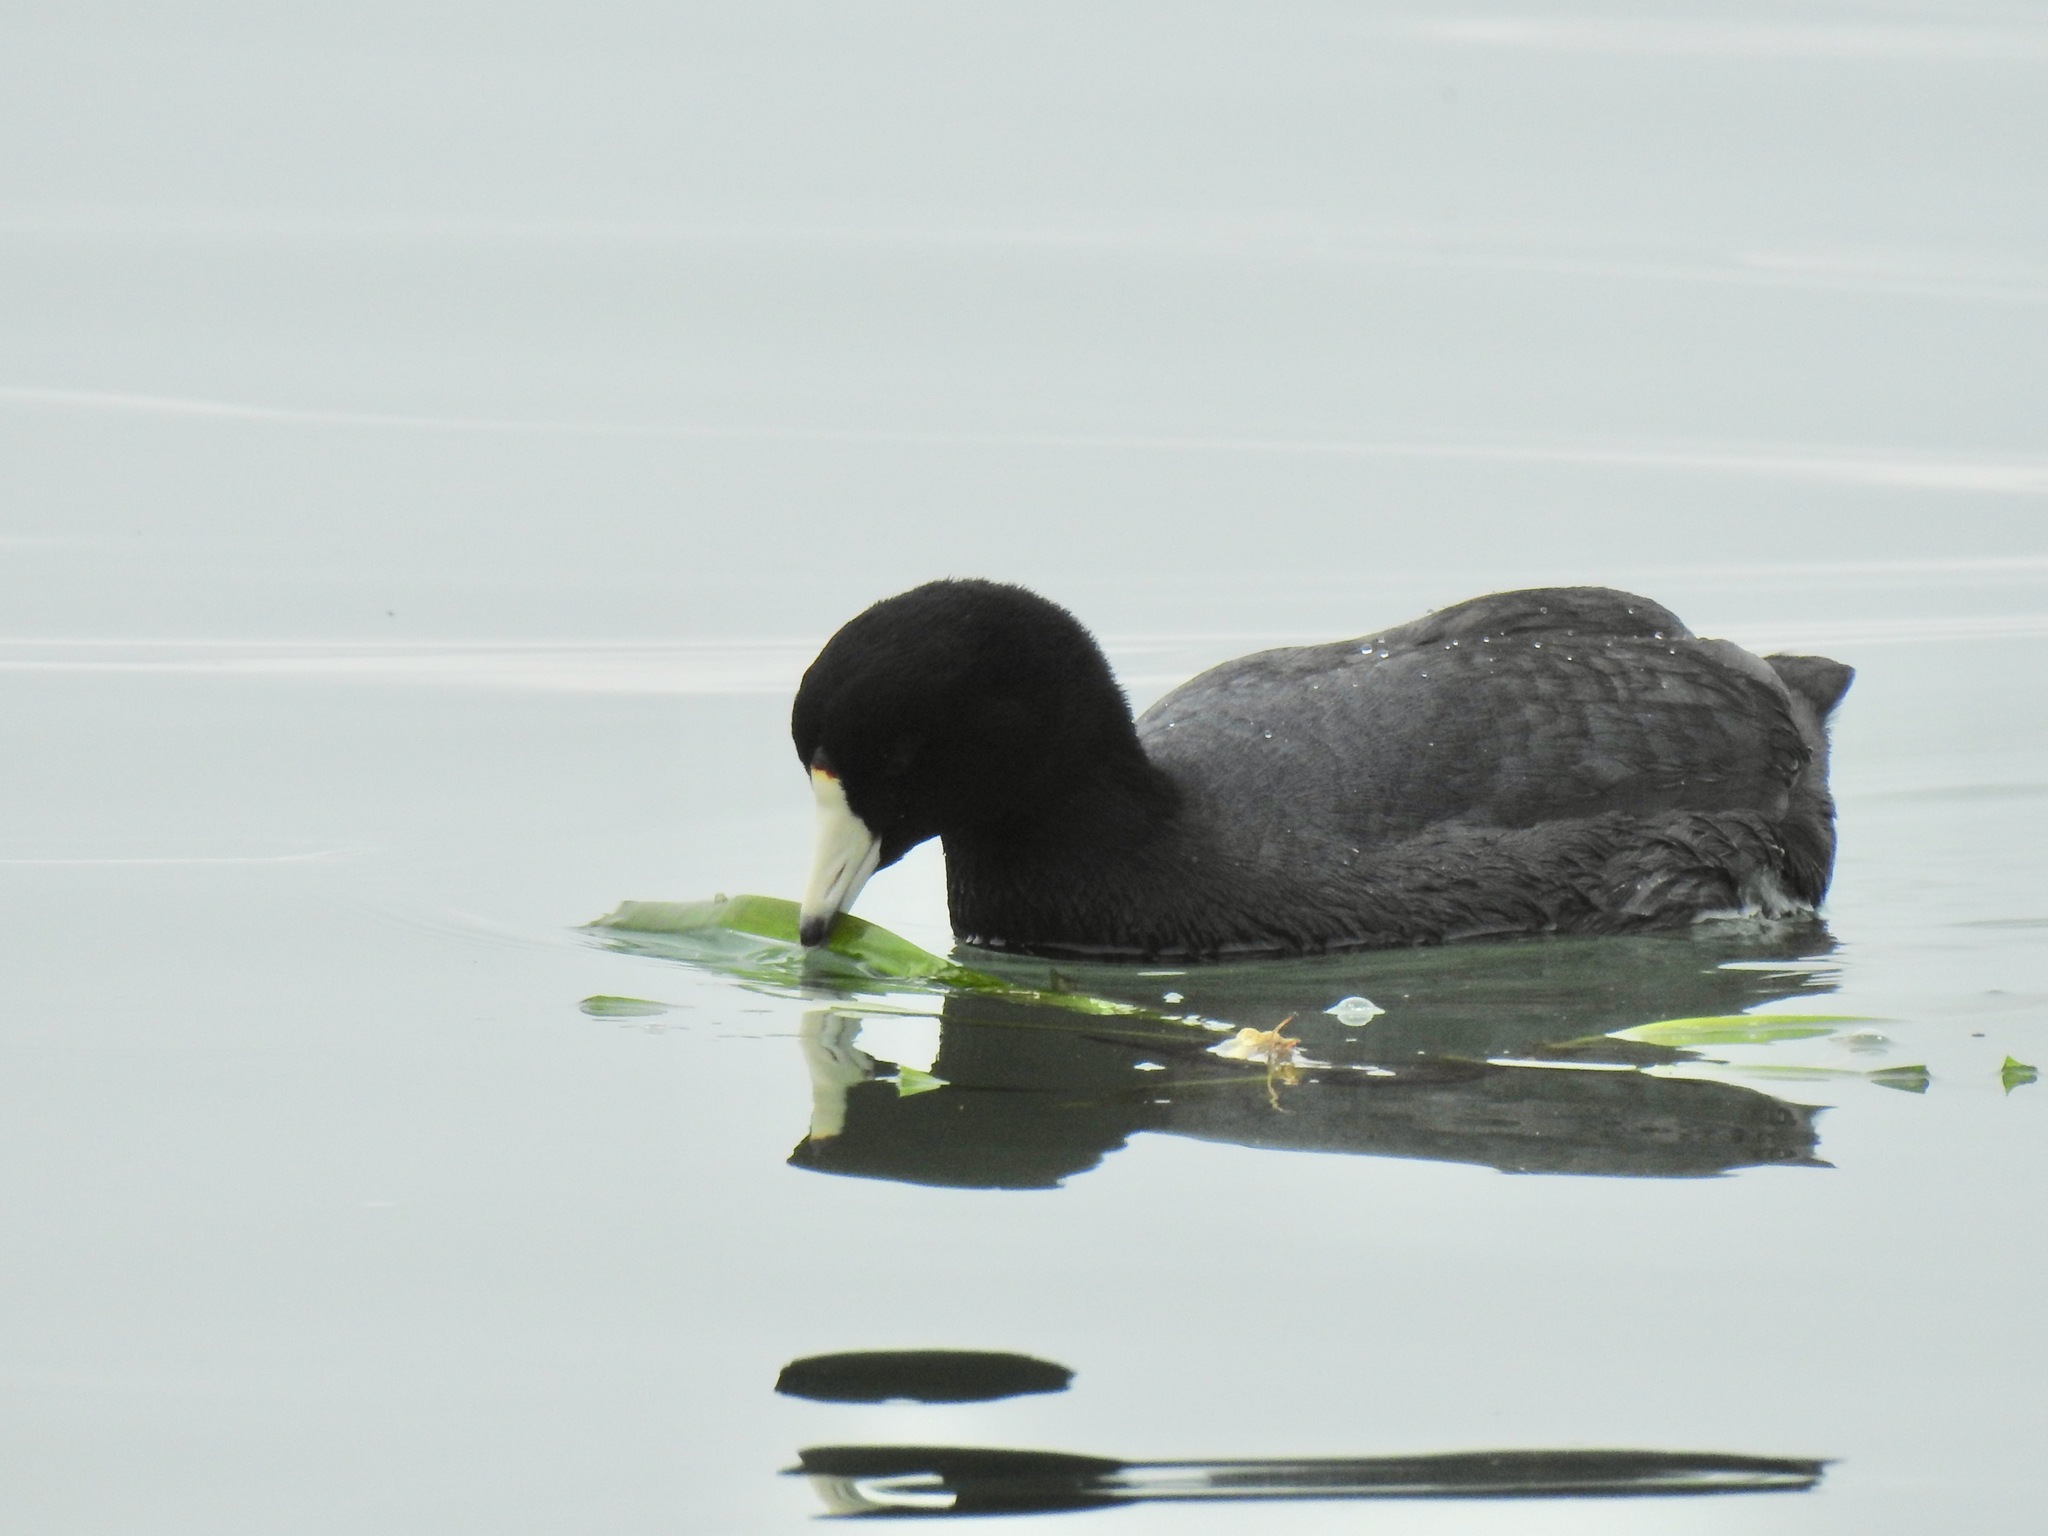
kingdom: Animalia
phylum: Chordata
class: Aves
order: Gruiformes
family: Rallidae
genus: Fulica
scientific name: Fulica americana
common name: American coot
